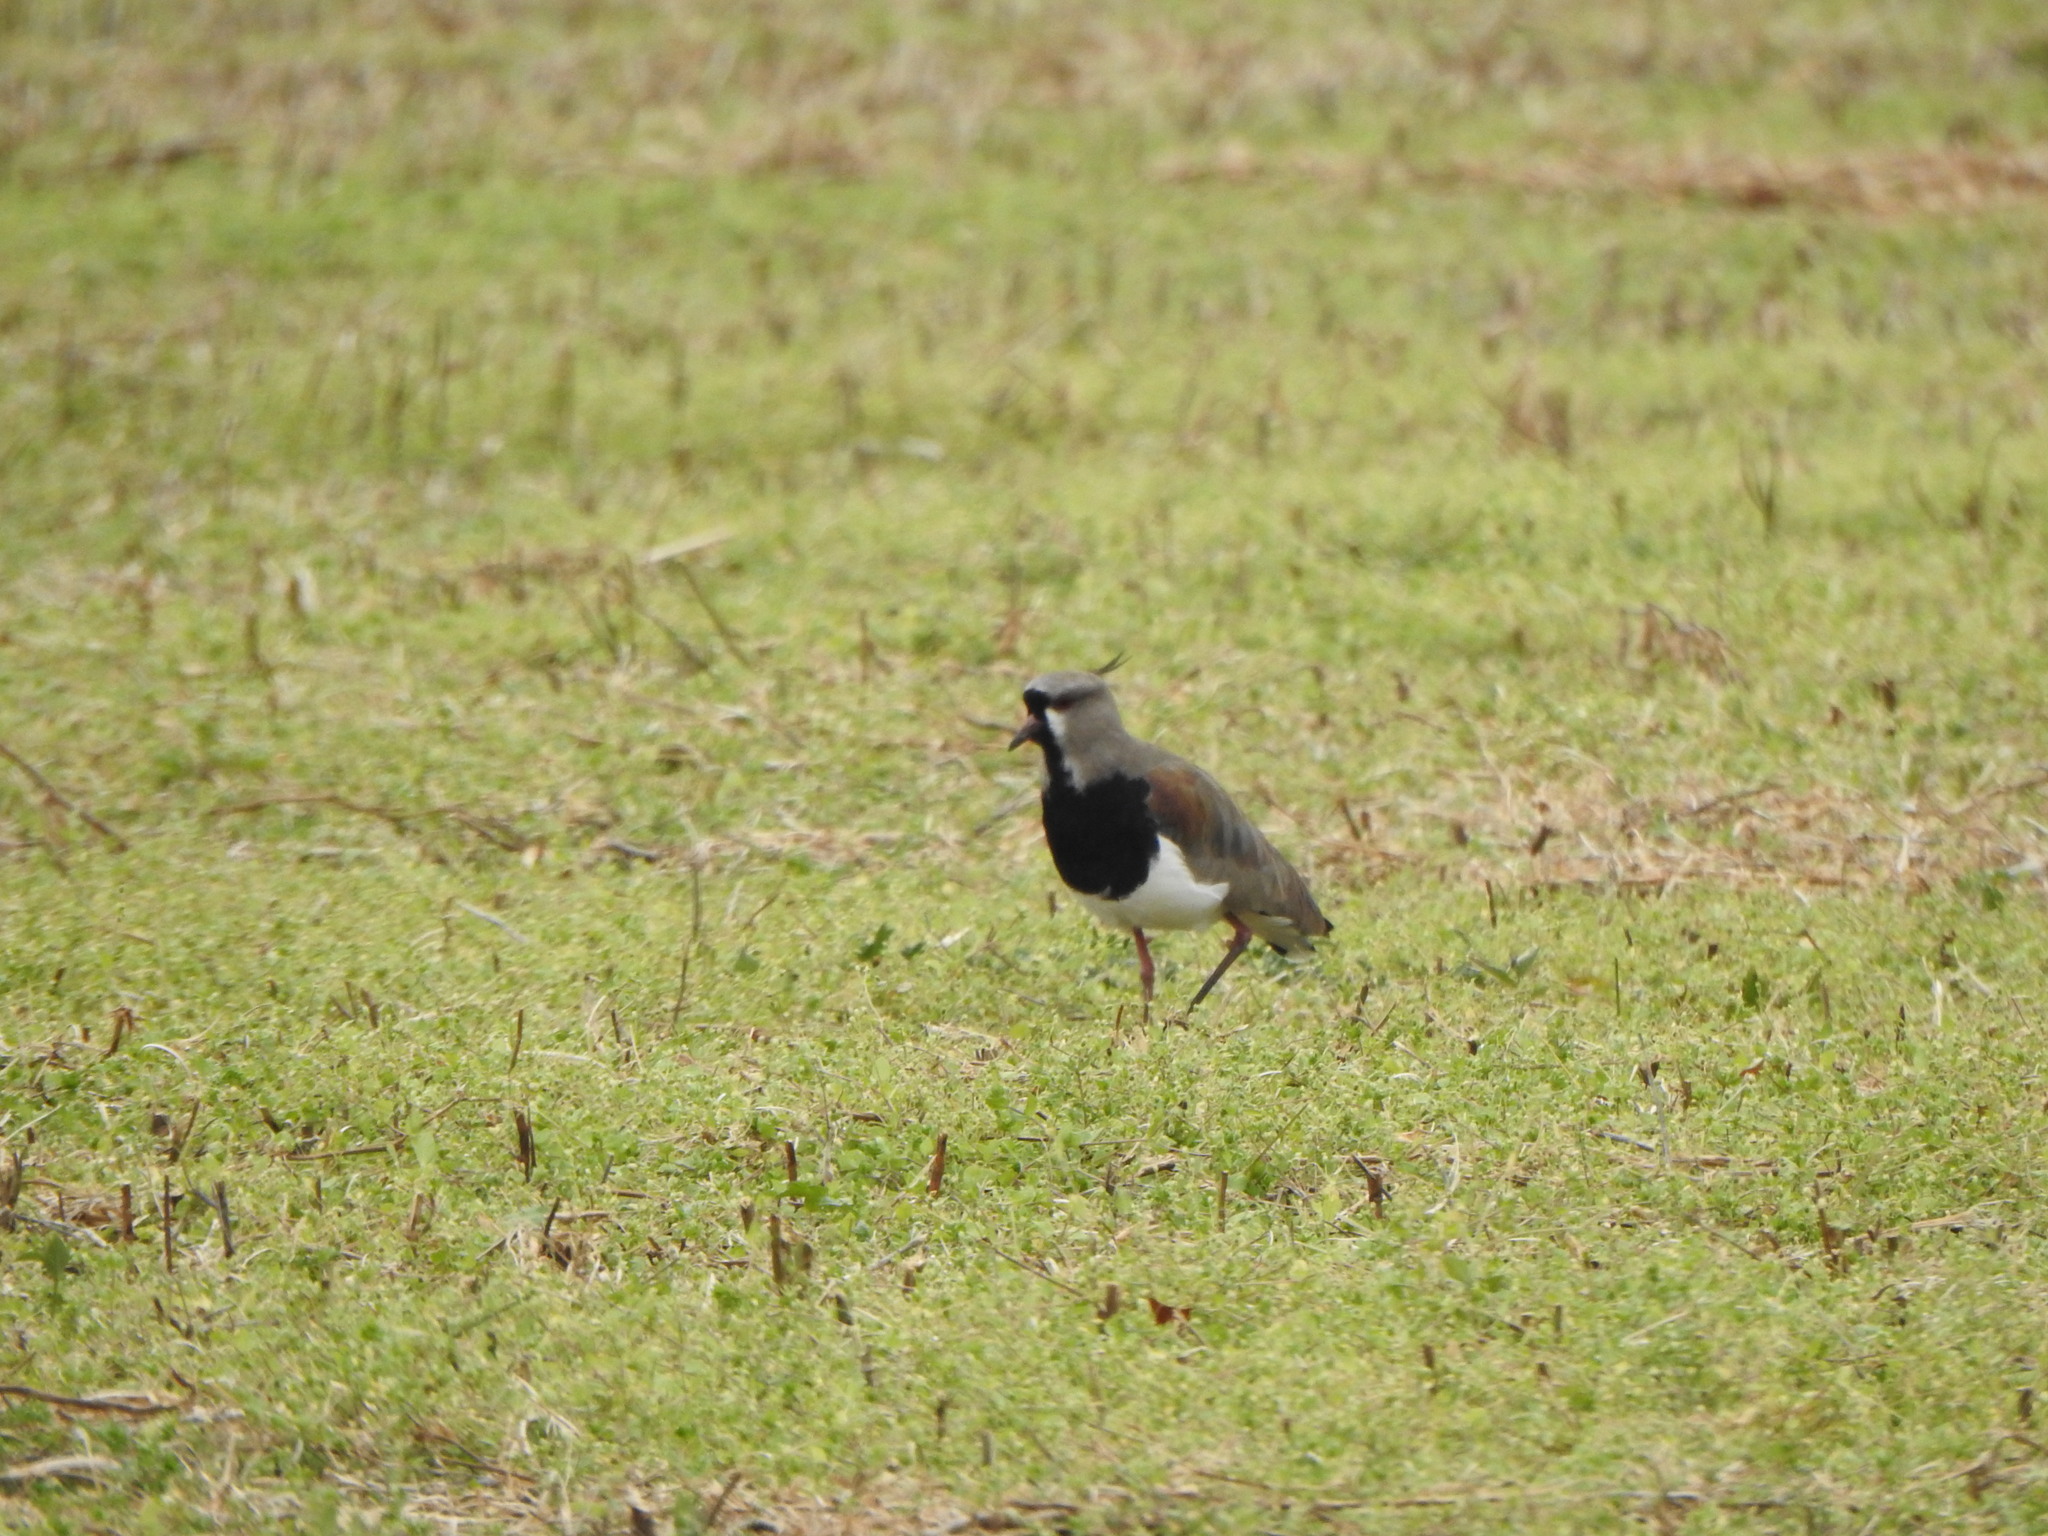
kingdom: Animalia
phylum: Chordata
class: Aves
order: Charadriiformes
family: Charadriidae
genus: Vanellus
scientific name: Vanellus chilensis
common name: Southern lapwing
